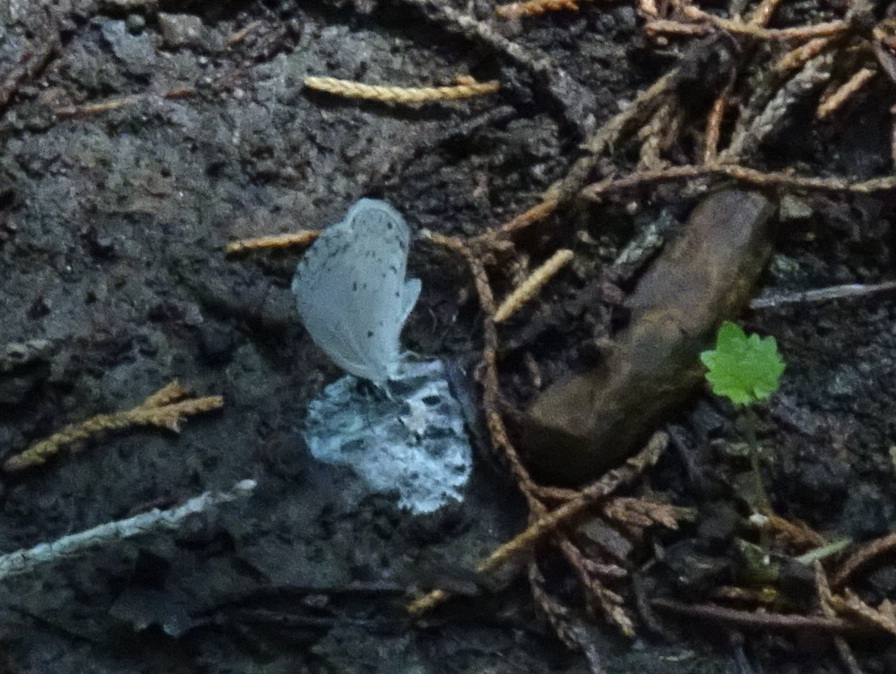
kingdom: Animalia
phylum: Arthropoda
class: Insecta
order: Lepidoptera
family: Lycaenidae
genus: Cyaniris
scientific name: Cyaniris neglecta
